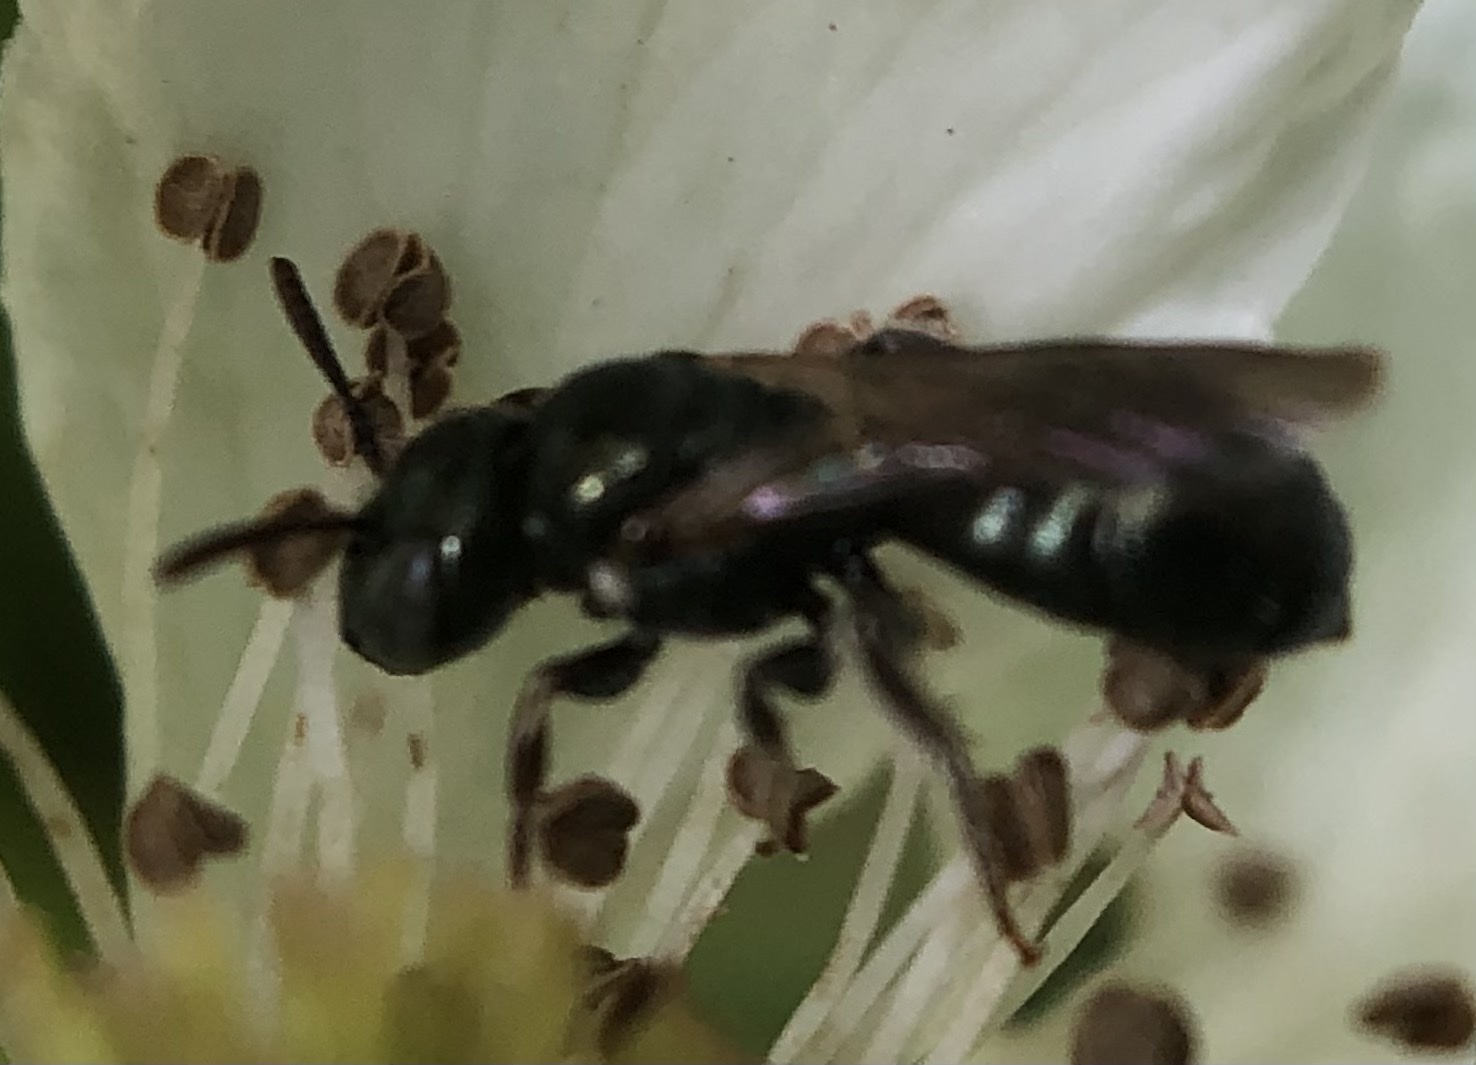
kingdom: Animalia
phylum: Arthropoda
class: Insecta
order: Hymenoptera
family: Apidae
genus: Ceratina
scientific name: Ceratina strenua
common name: Nimble carpenter bee
